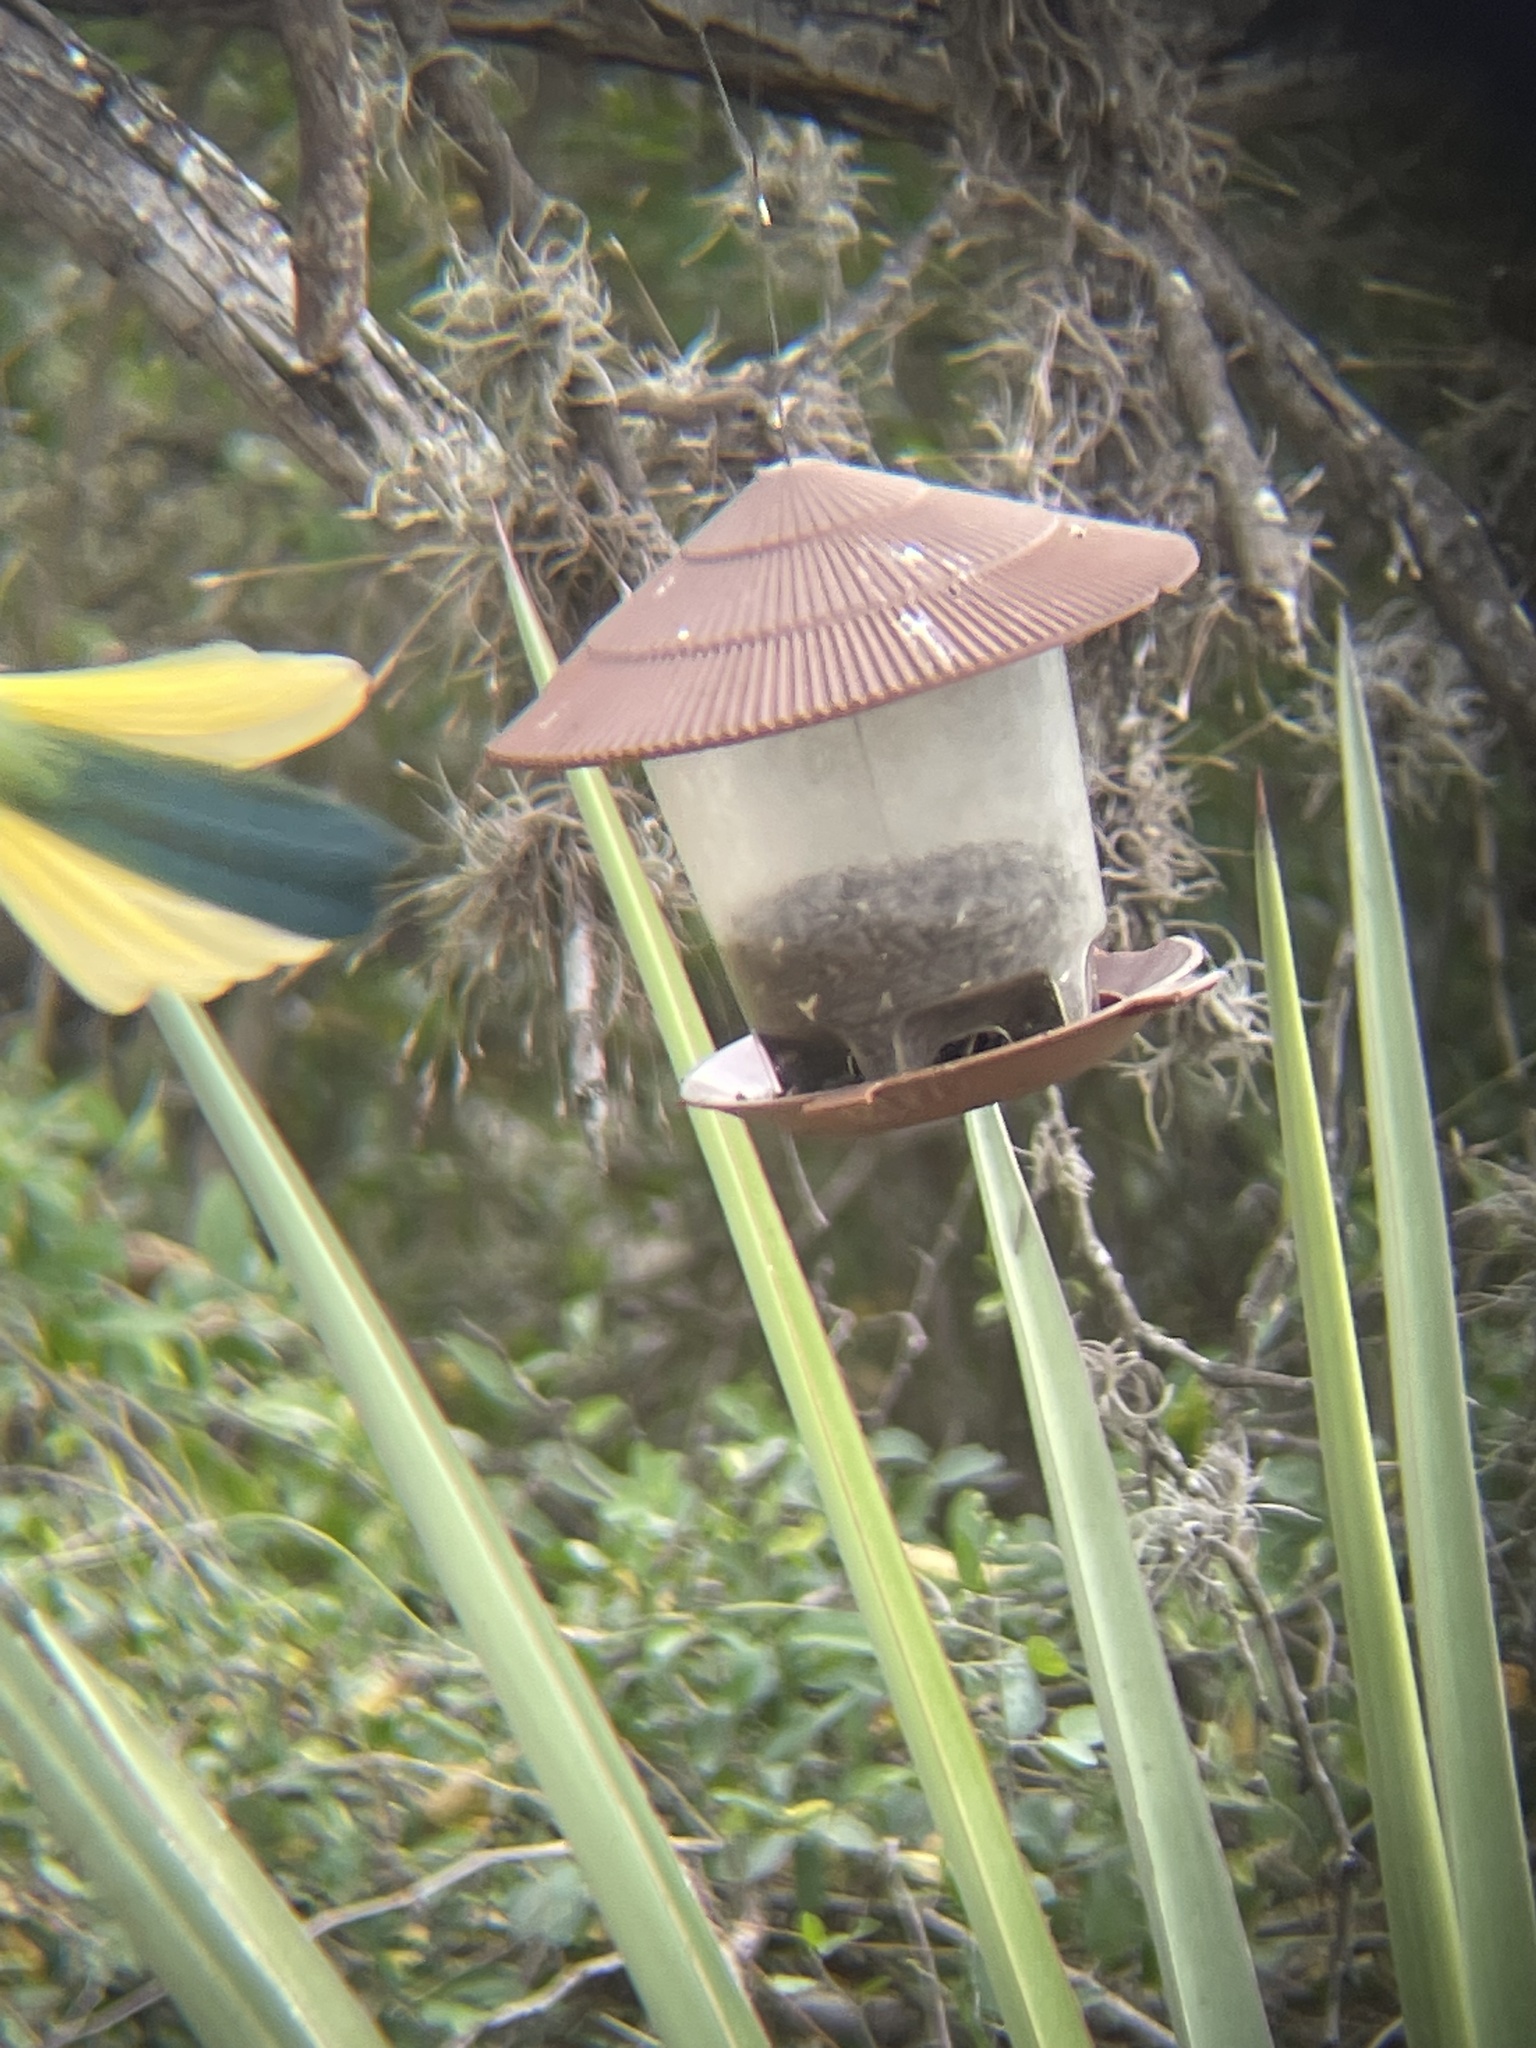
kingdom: Animalia
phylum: Chordata
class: Aves
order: Passeriformes
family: Corvidae
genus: Cyanocorax
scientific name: Cyanocorax yncas
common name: Green jay
